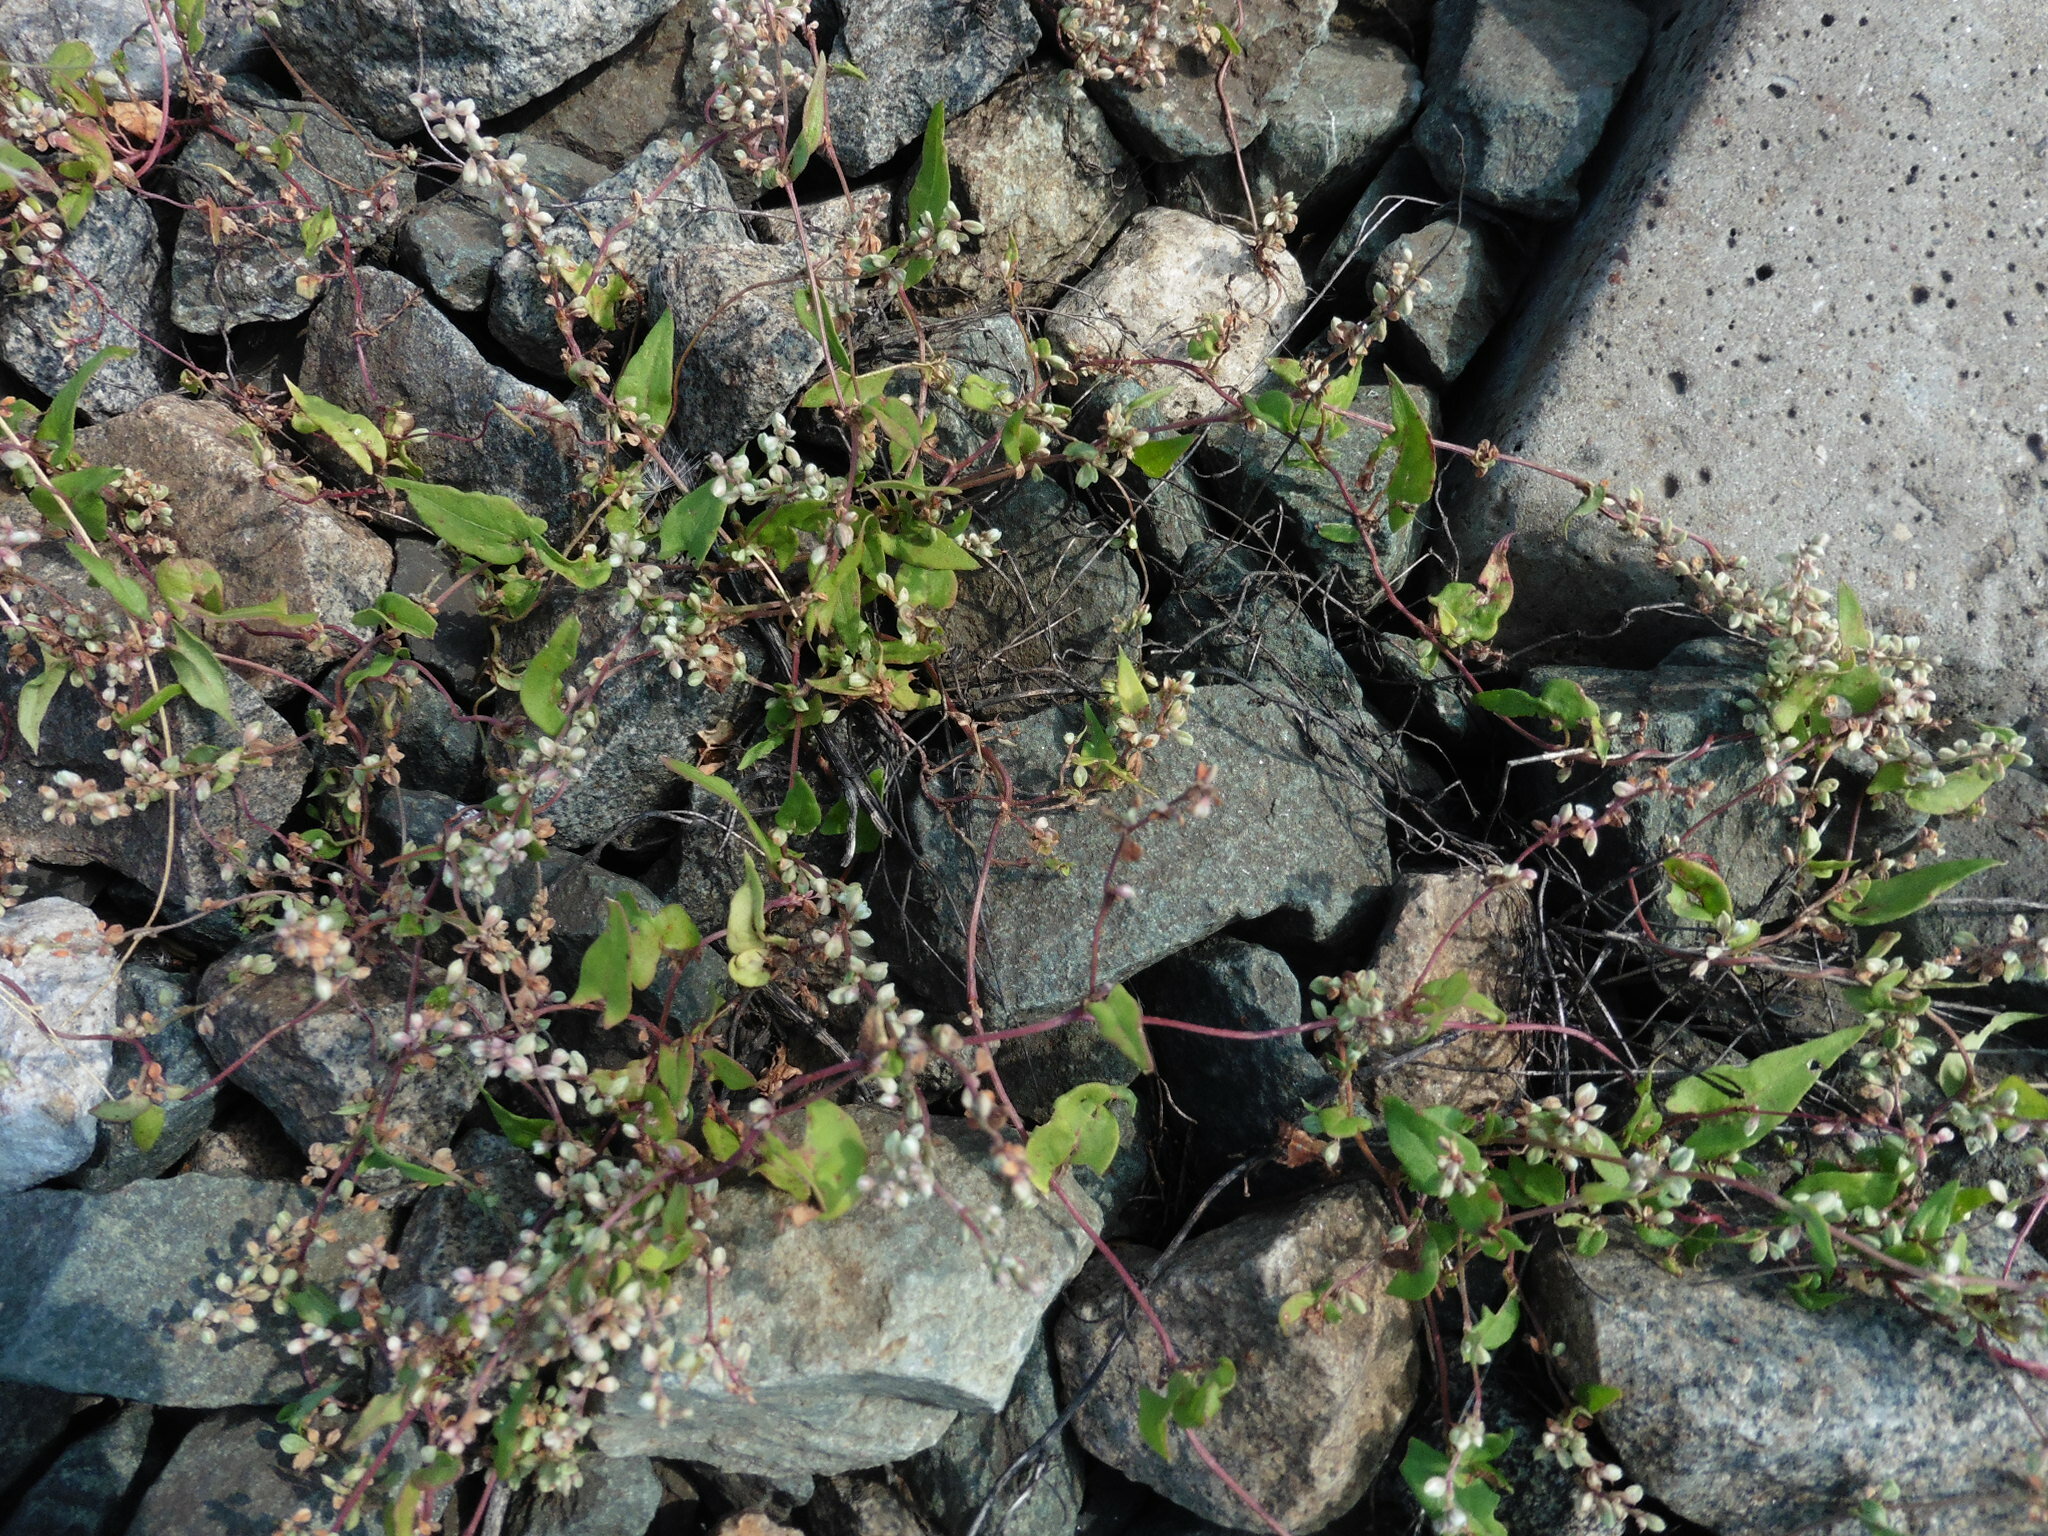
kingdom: Plantae
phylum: Tracheophyta
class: Magnoliopsida
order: Caryophyllales
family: Polygonaceae
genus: Fallopia
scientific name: Fallopia convolvulus
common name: Black bindweed
